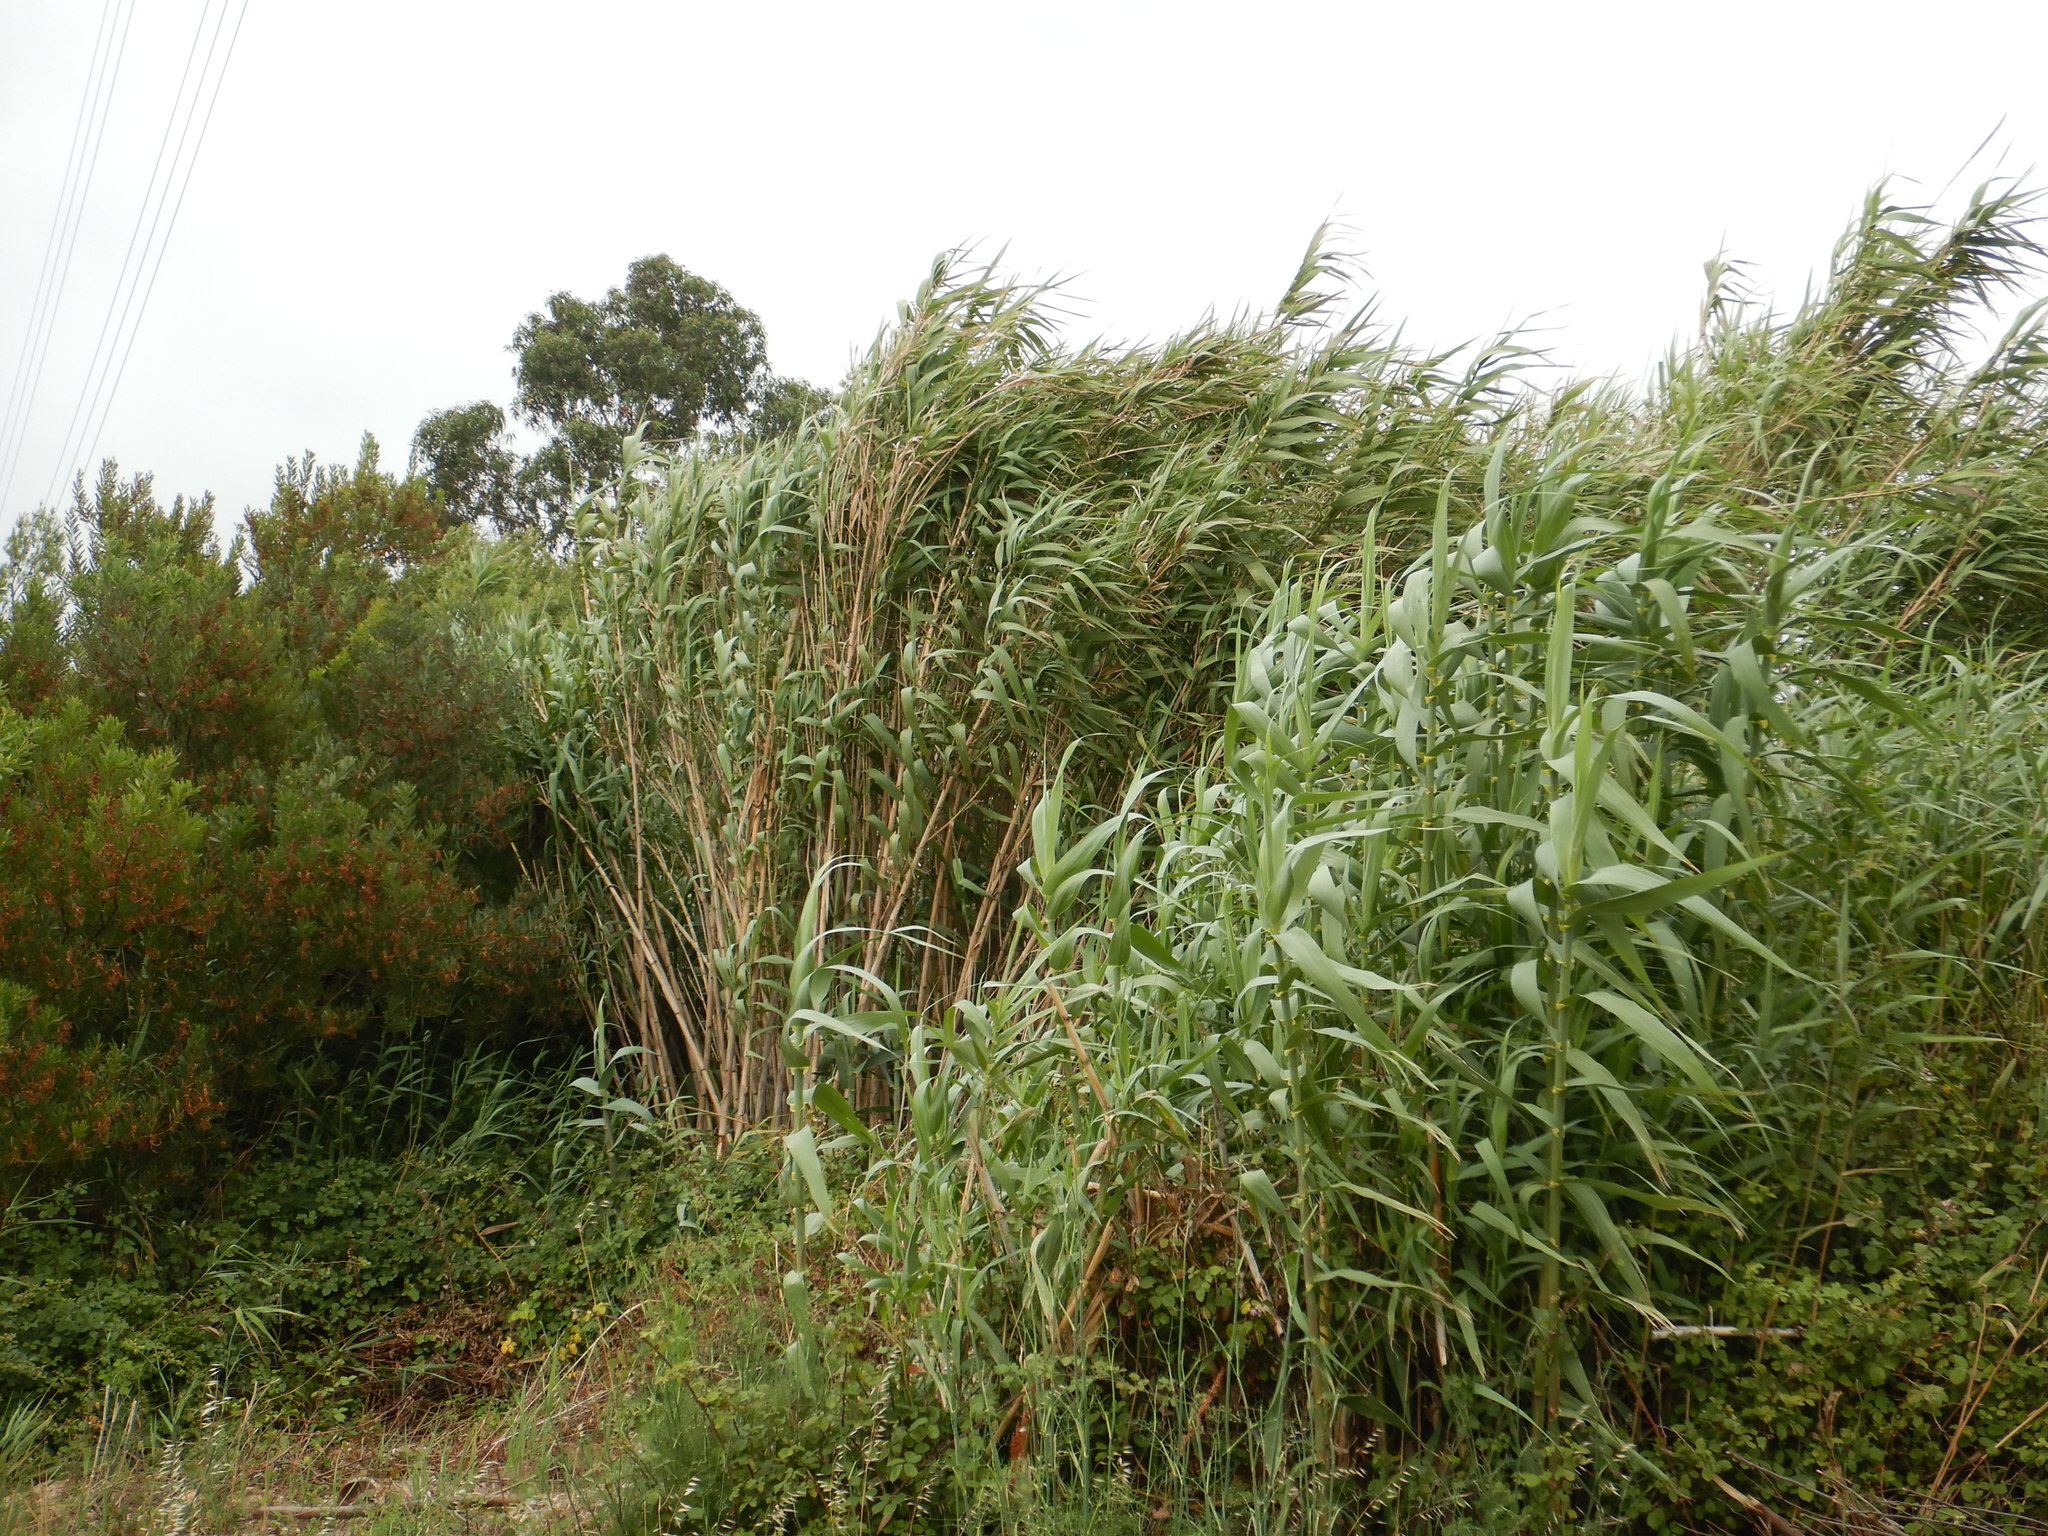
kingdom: Plantae
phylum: Tracheophyta
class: Liliopsida
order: Poales
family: Poaceae
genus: Arundo
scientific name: Arundo donax
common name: Giant reed
